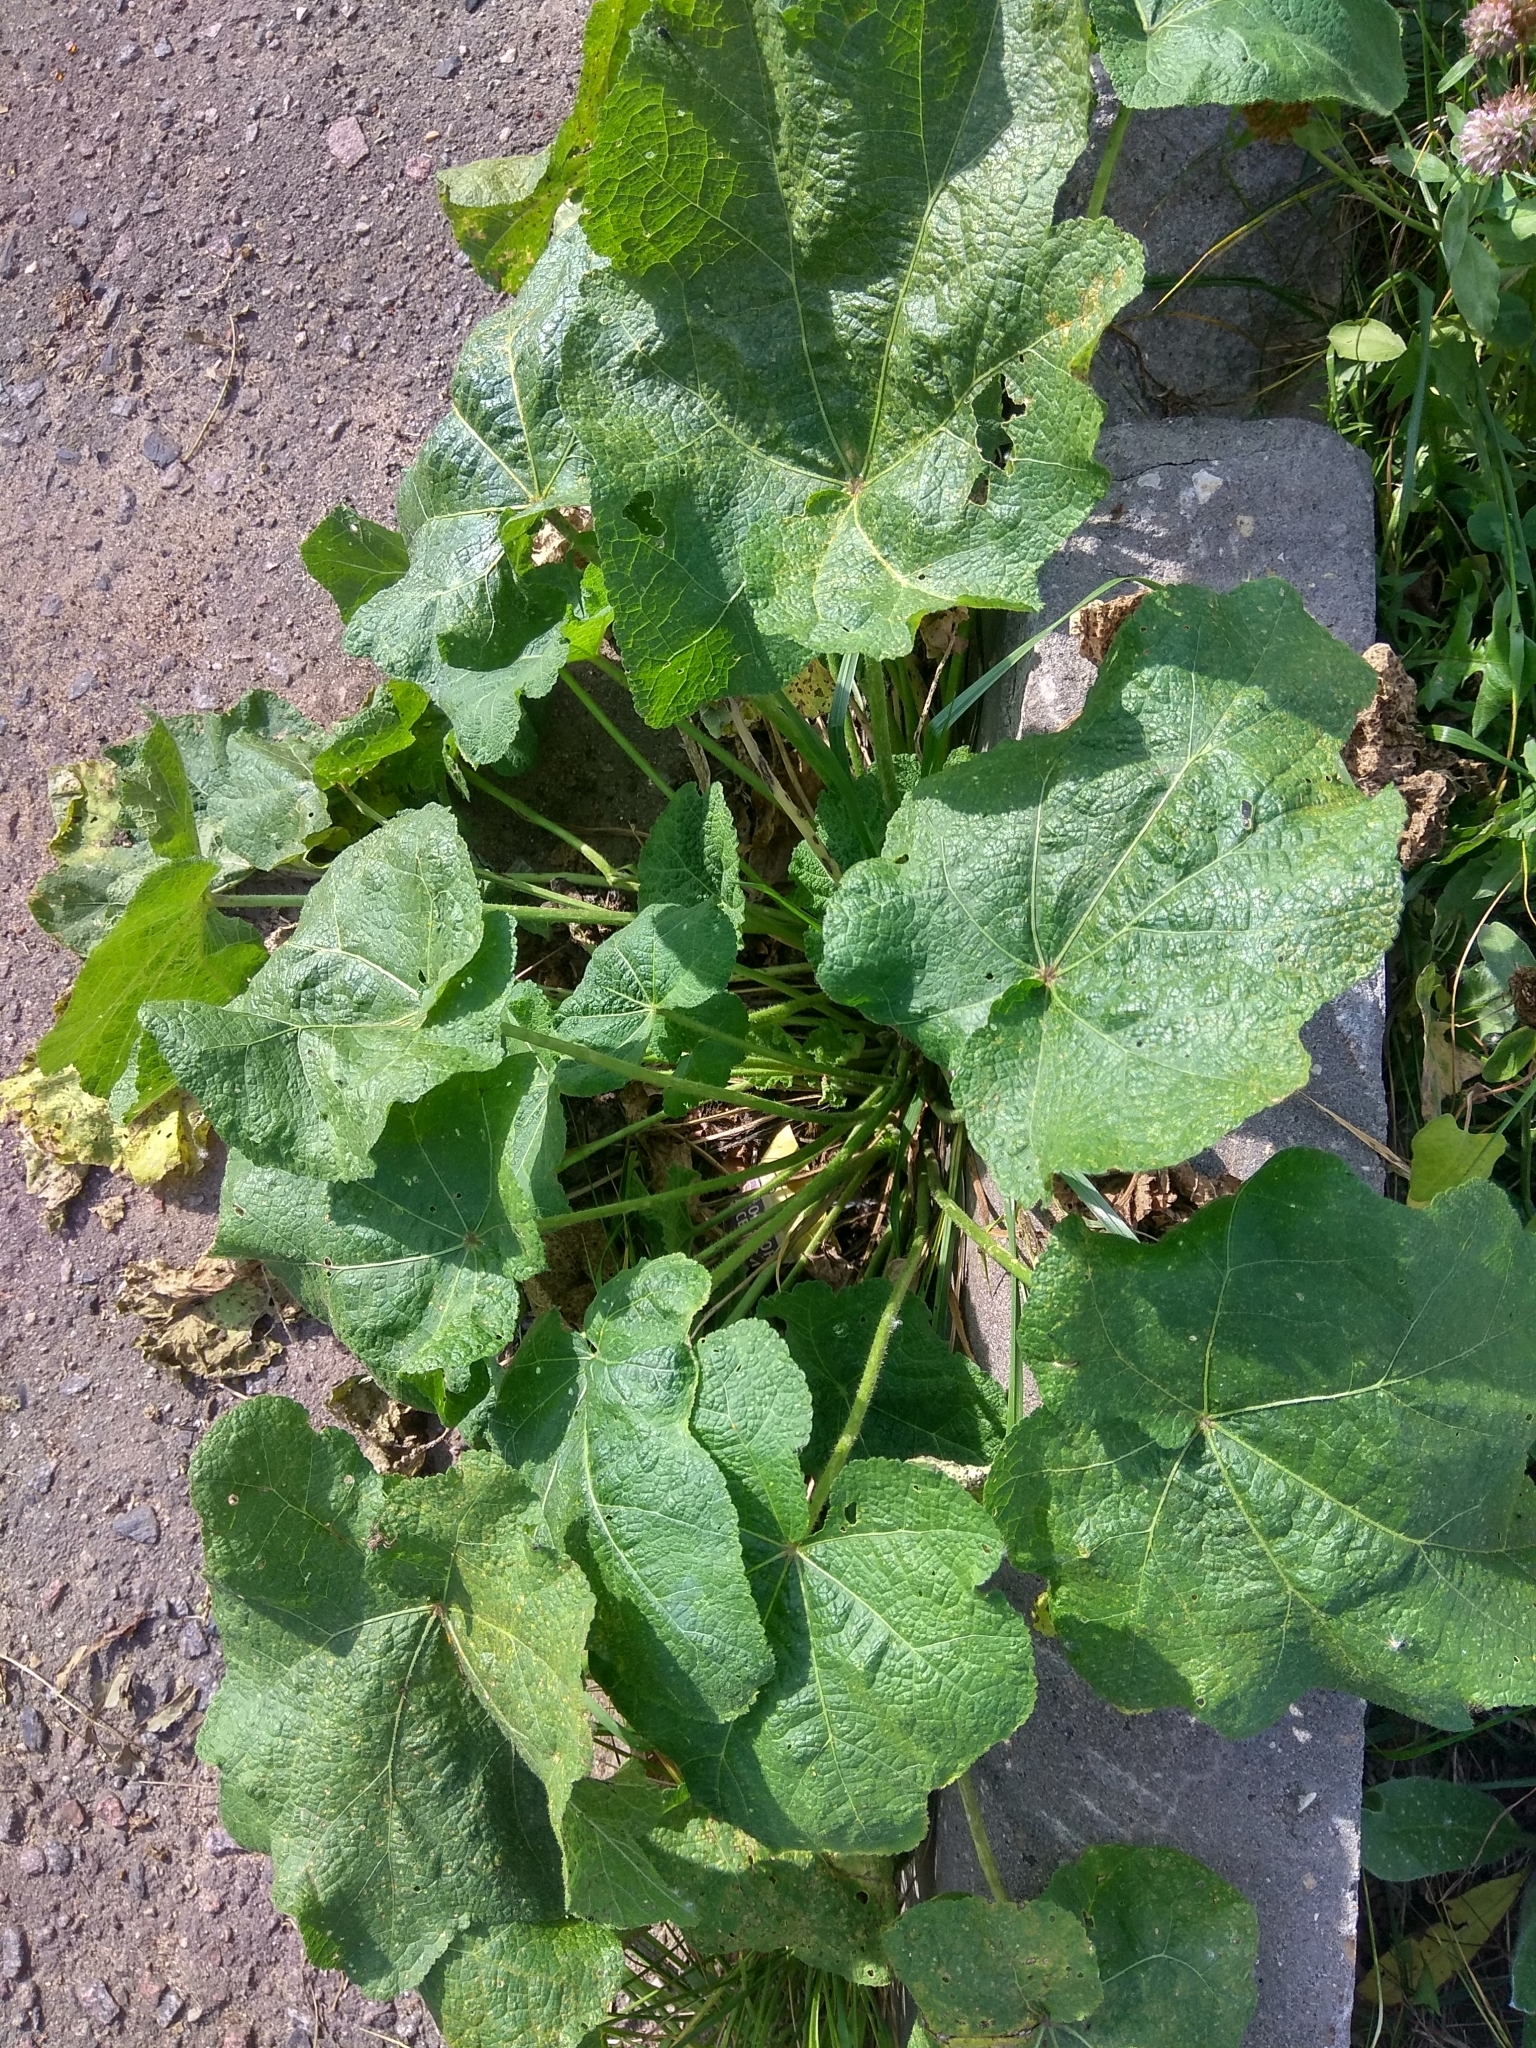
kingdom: Plantae
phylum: Tracheophyta
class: Magnoliopsida
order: Malvales
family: Malvaceae
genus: Alcea
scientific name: Alcea rosea
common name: Hollyhock
